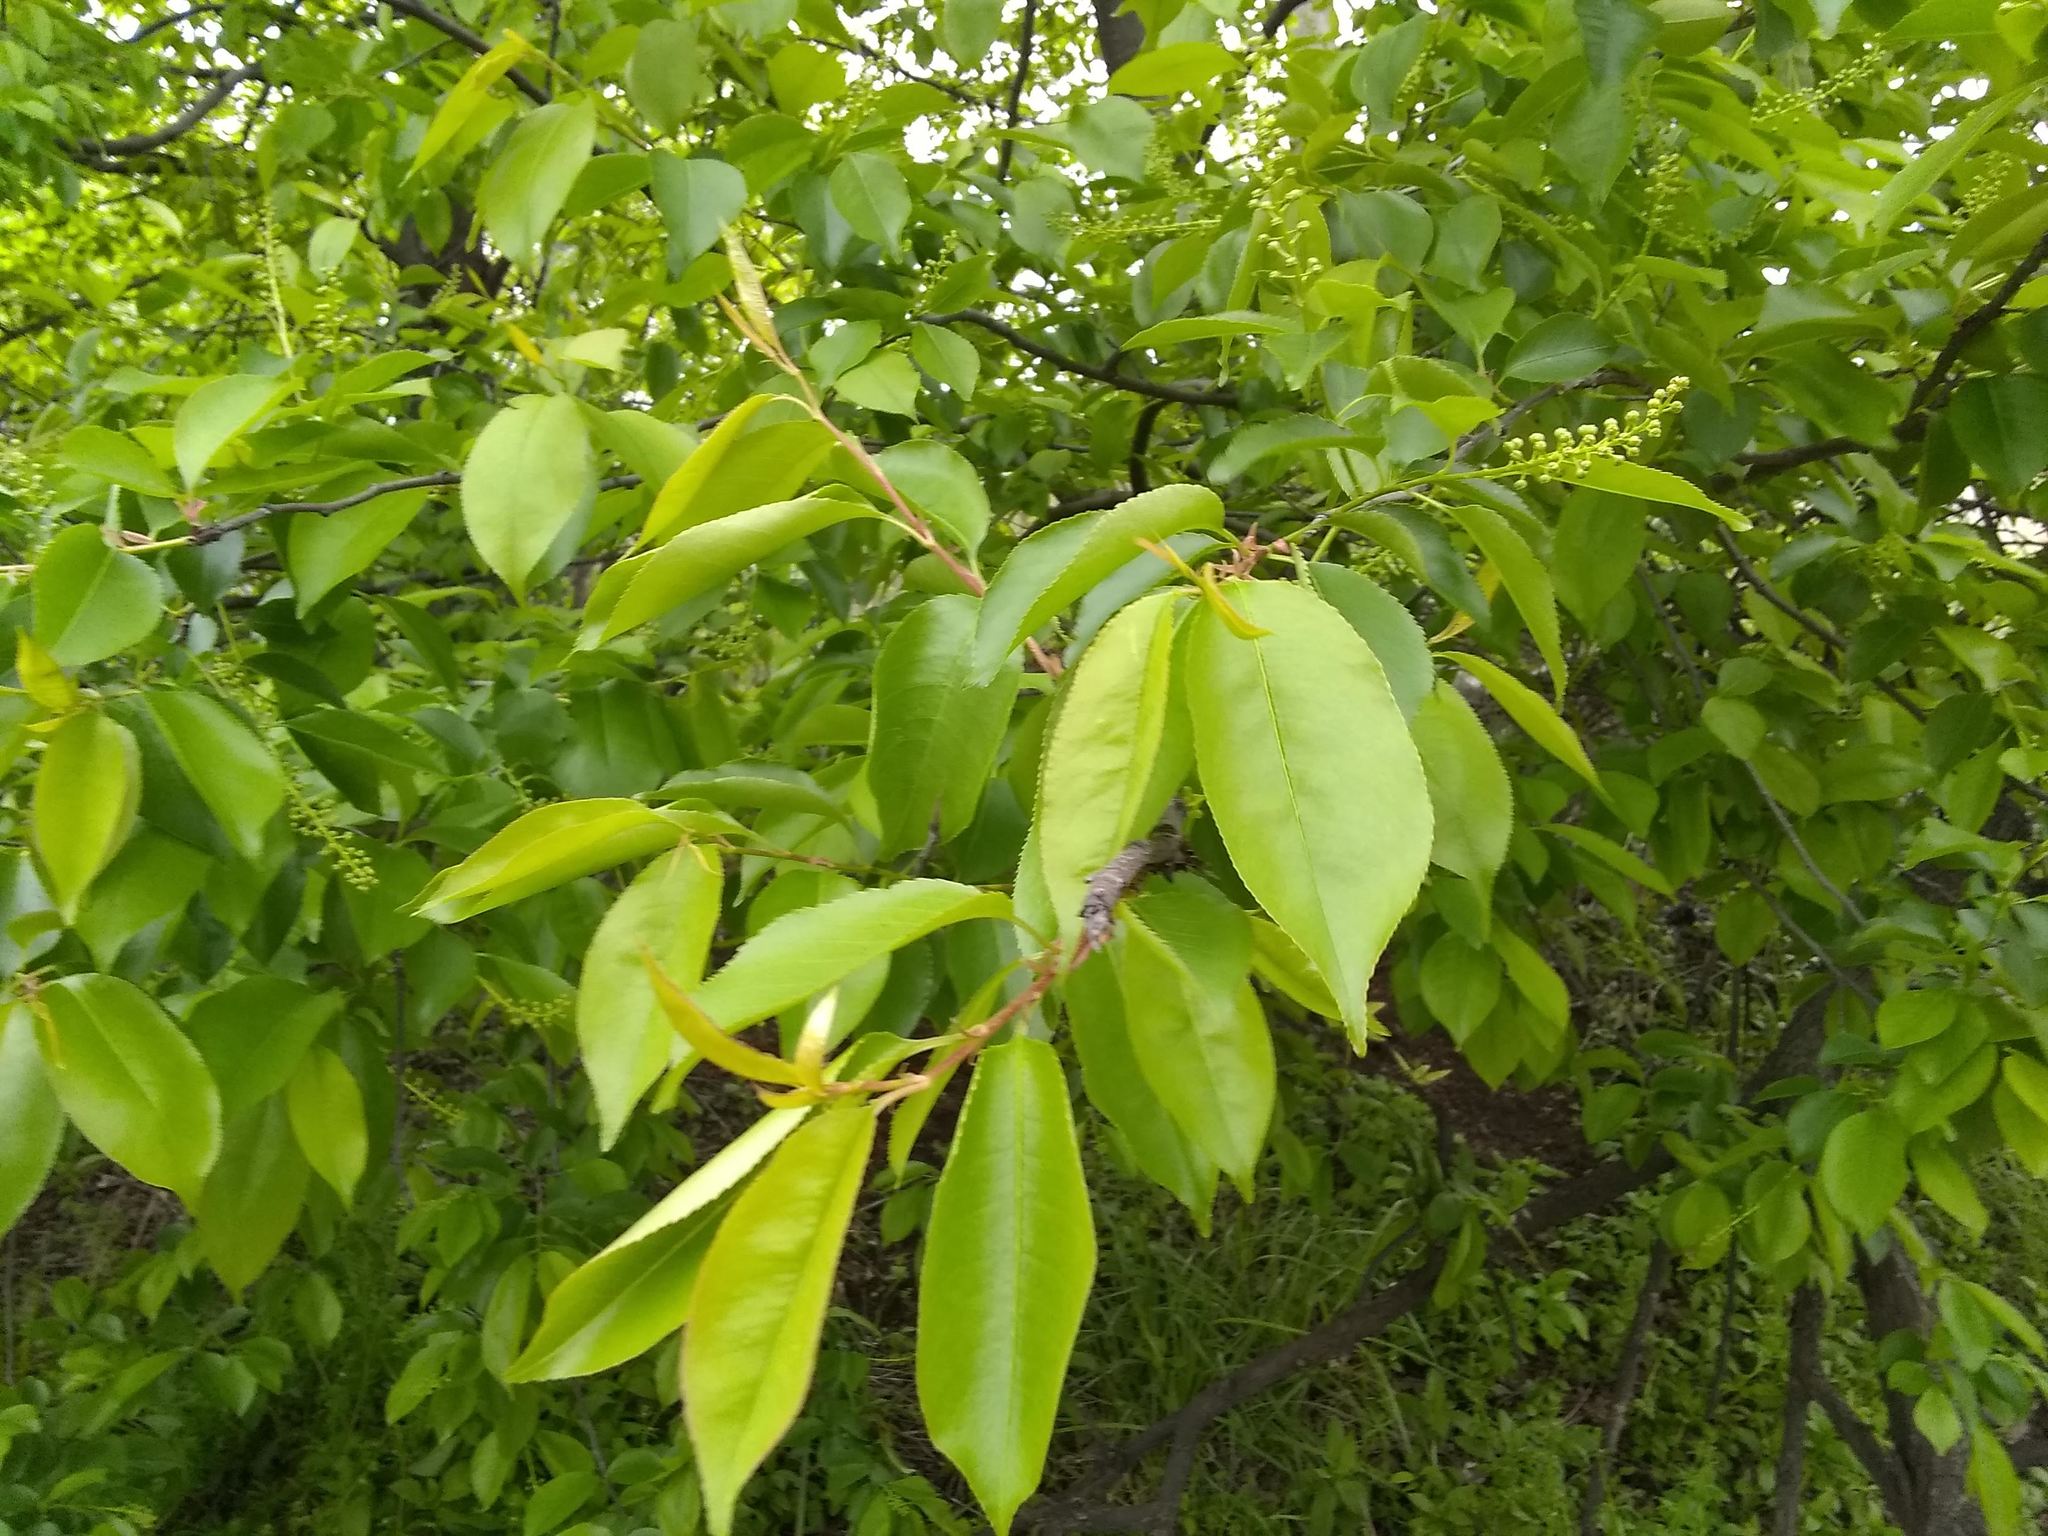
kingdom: Plantae
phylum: Tracheophyta
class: Magnoliopsida
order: Rosales
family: Rosaceae
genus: Prunus
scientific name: Prunus serotina
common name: Black cherry
